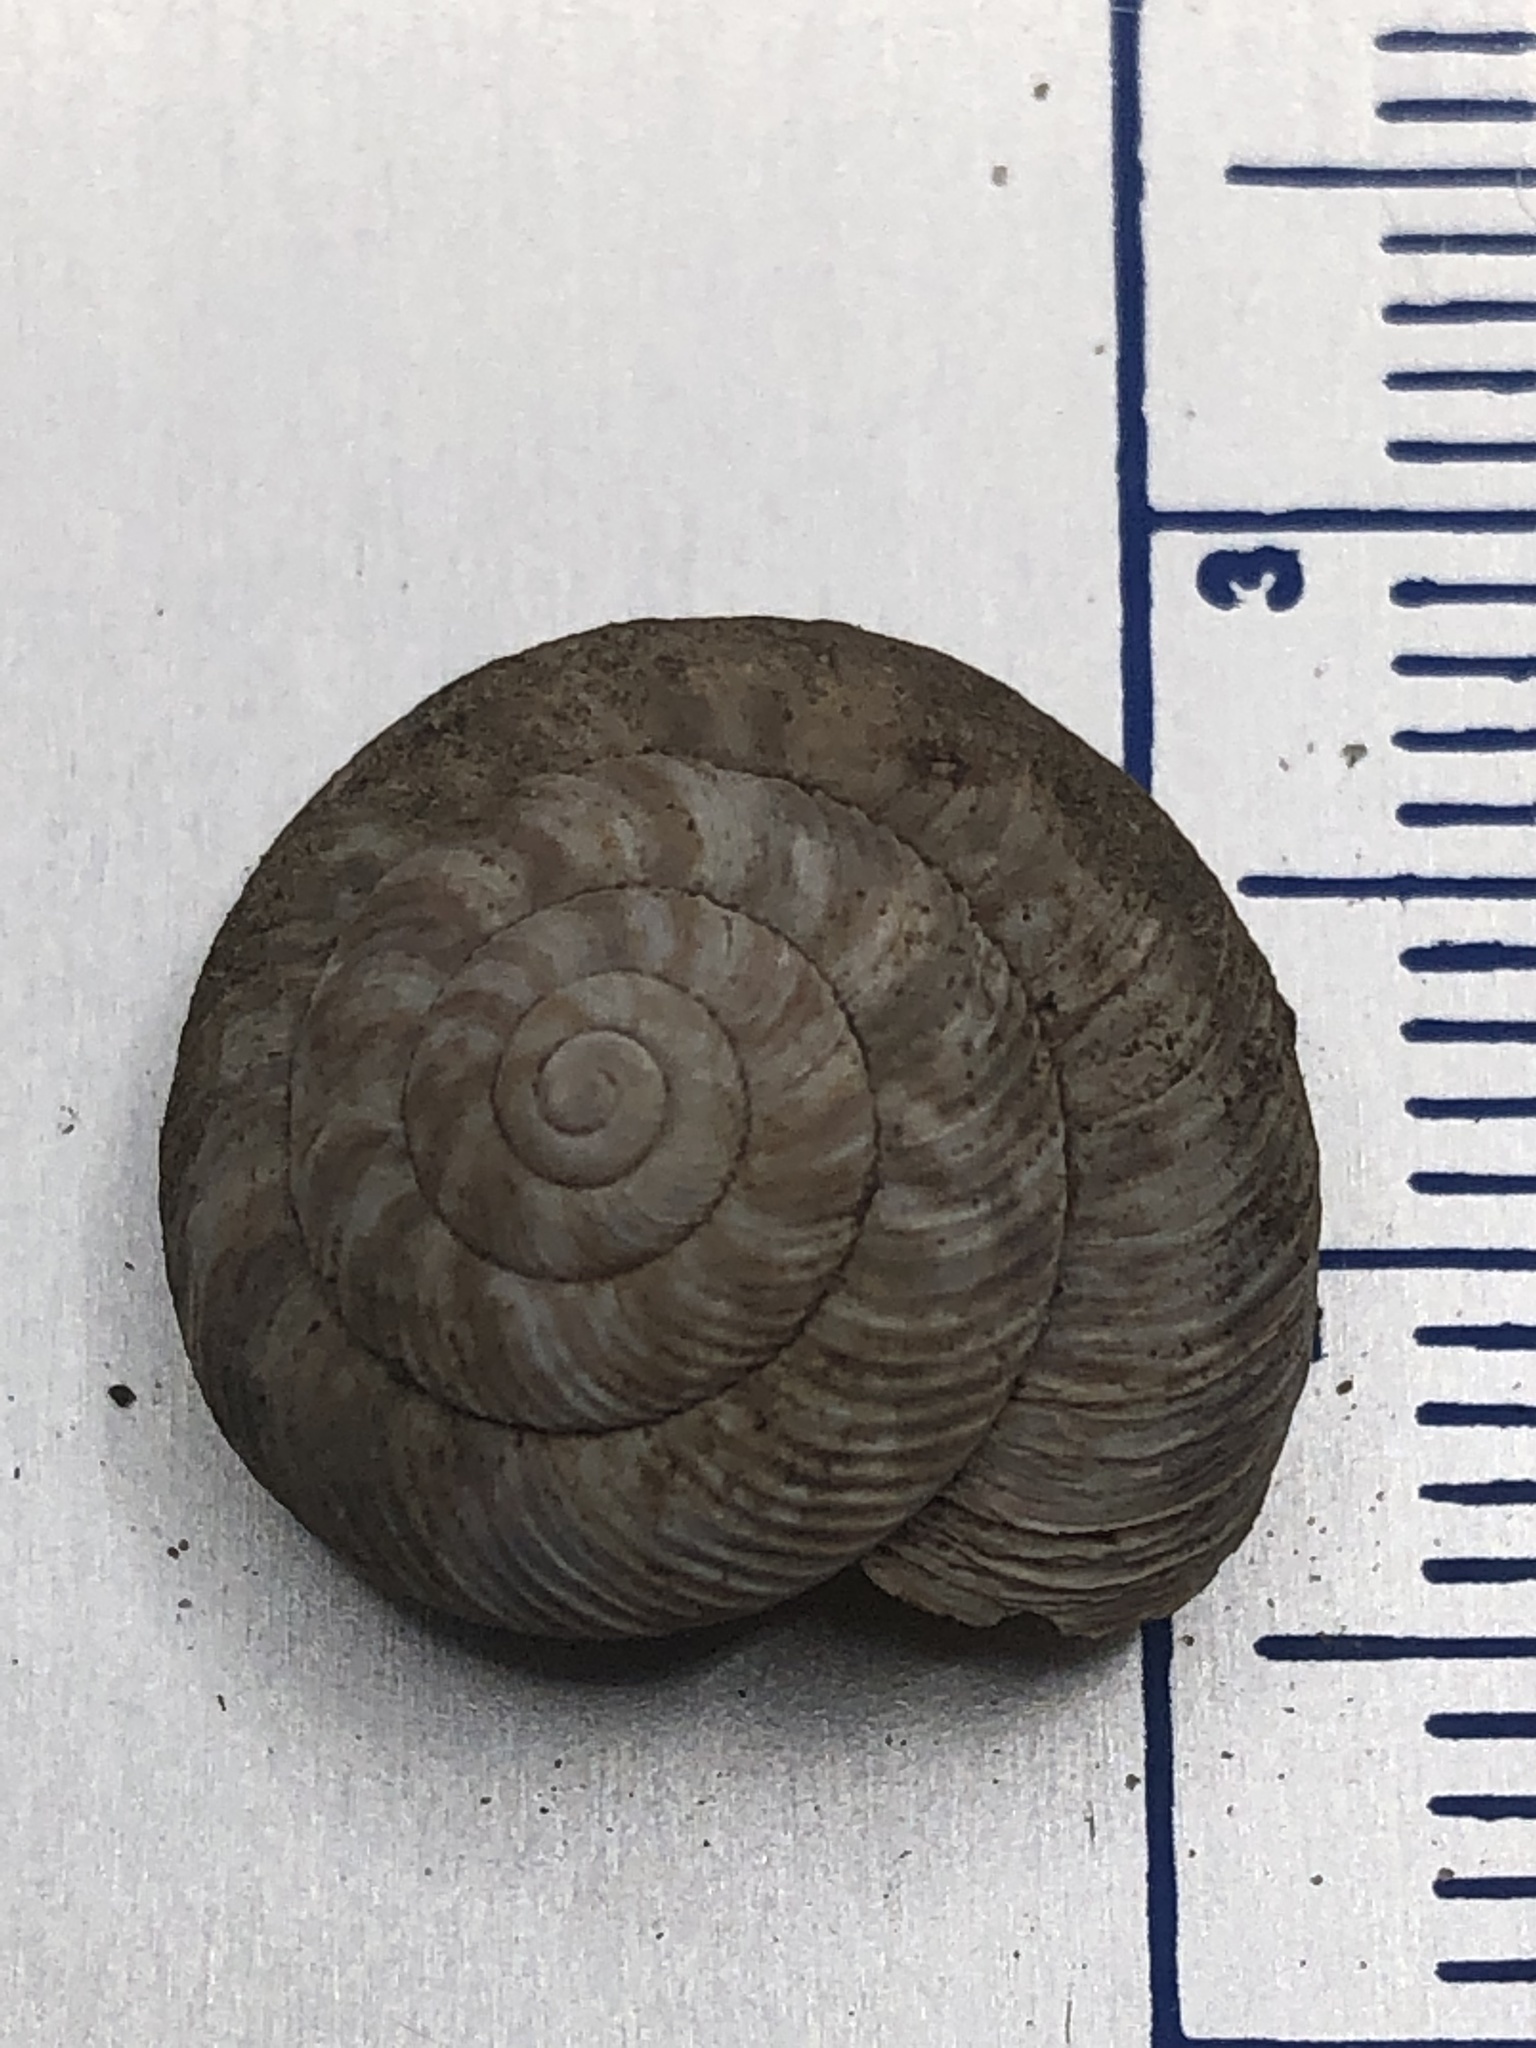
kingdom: Animalia
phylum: Mollusca
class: Gastropoda
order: Stylommatophora
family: Discidae
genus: Anguispira
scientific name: Anguispira alternata
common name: Flamed tigersnail
